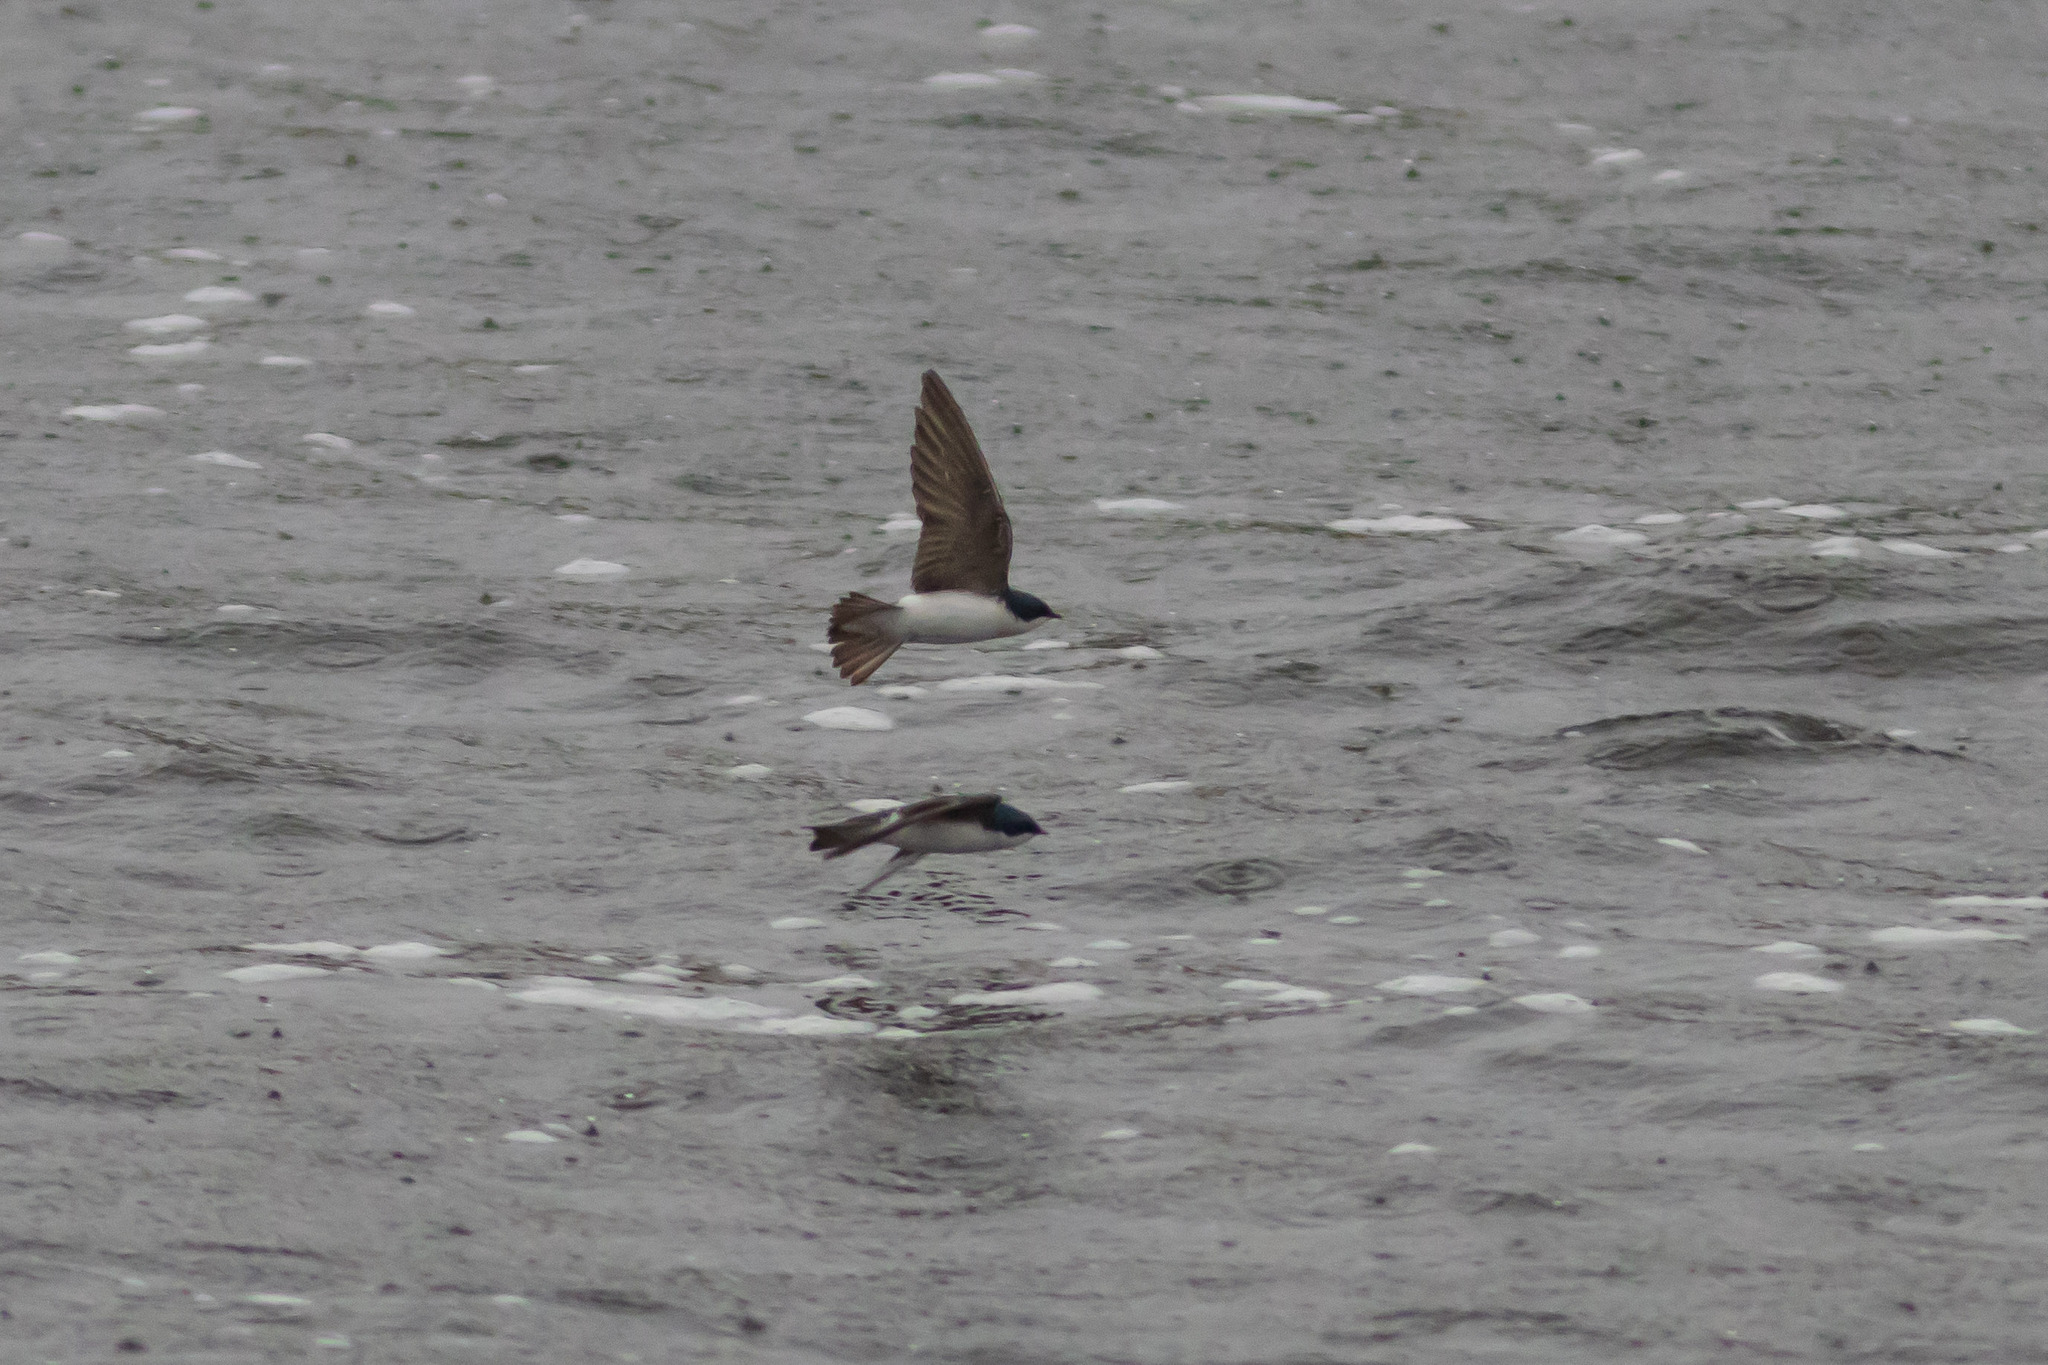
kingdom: Animalia
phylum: Chordata
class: Aves
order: Passeriformes
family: Hirundinidae
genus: Tachycineta
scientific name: Tachycineta bicolor
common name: Tree swallow
